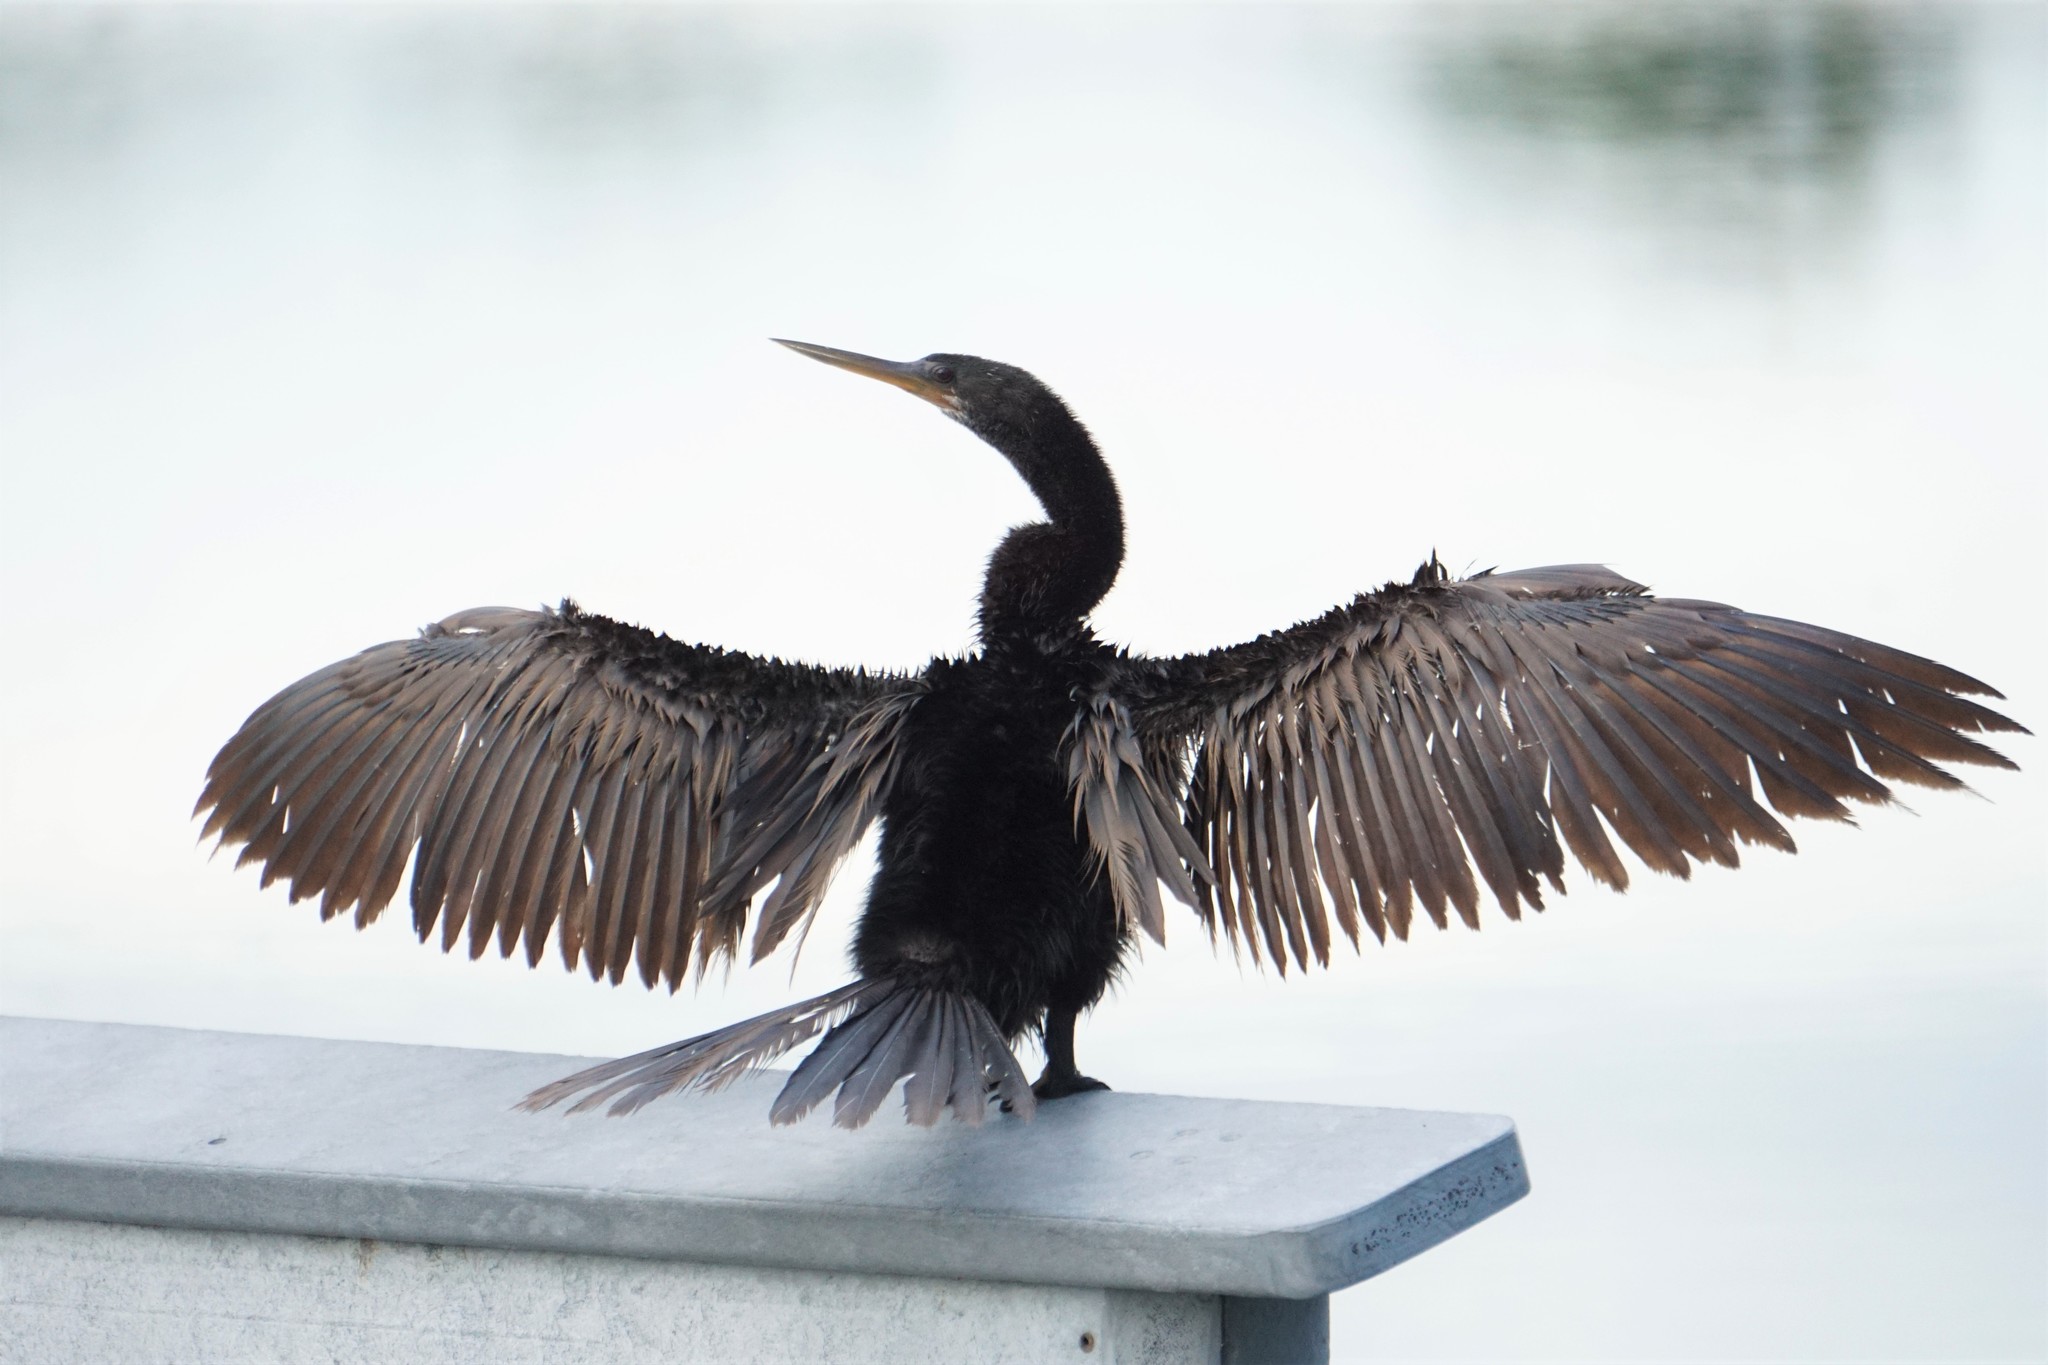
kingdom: Animalia
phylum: Chordata
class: Aves
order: Suliformes
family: Anhingidae
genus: Anhinga
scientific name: Anhinga anhinga
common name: Anhinga
